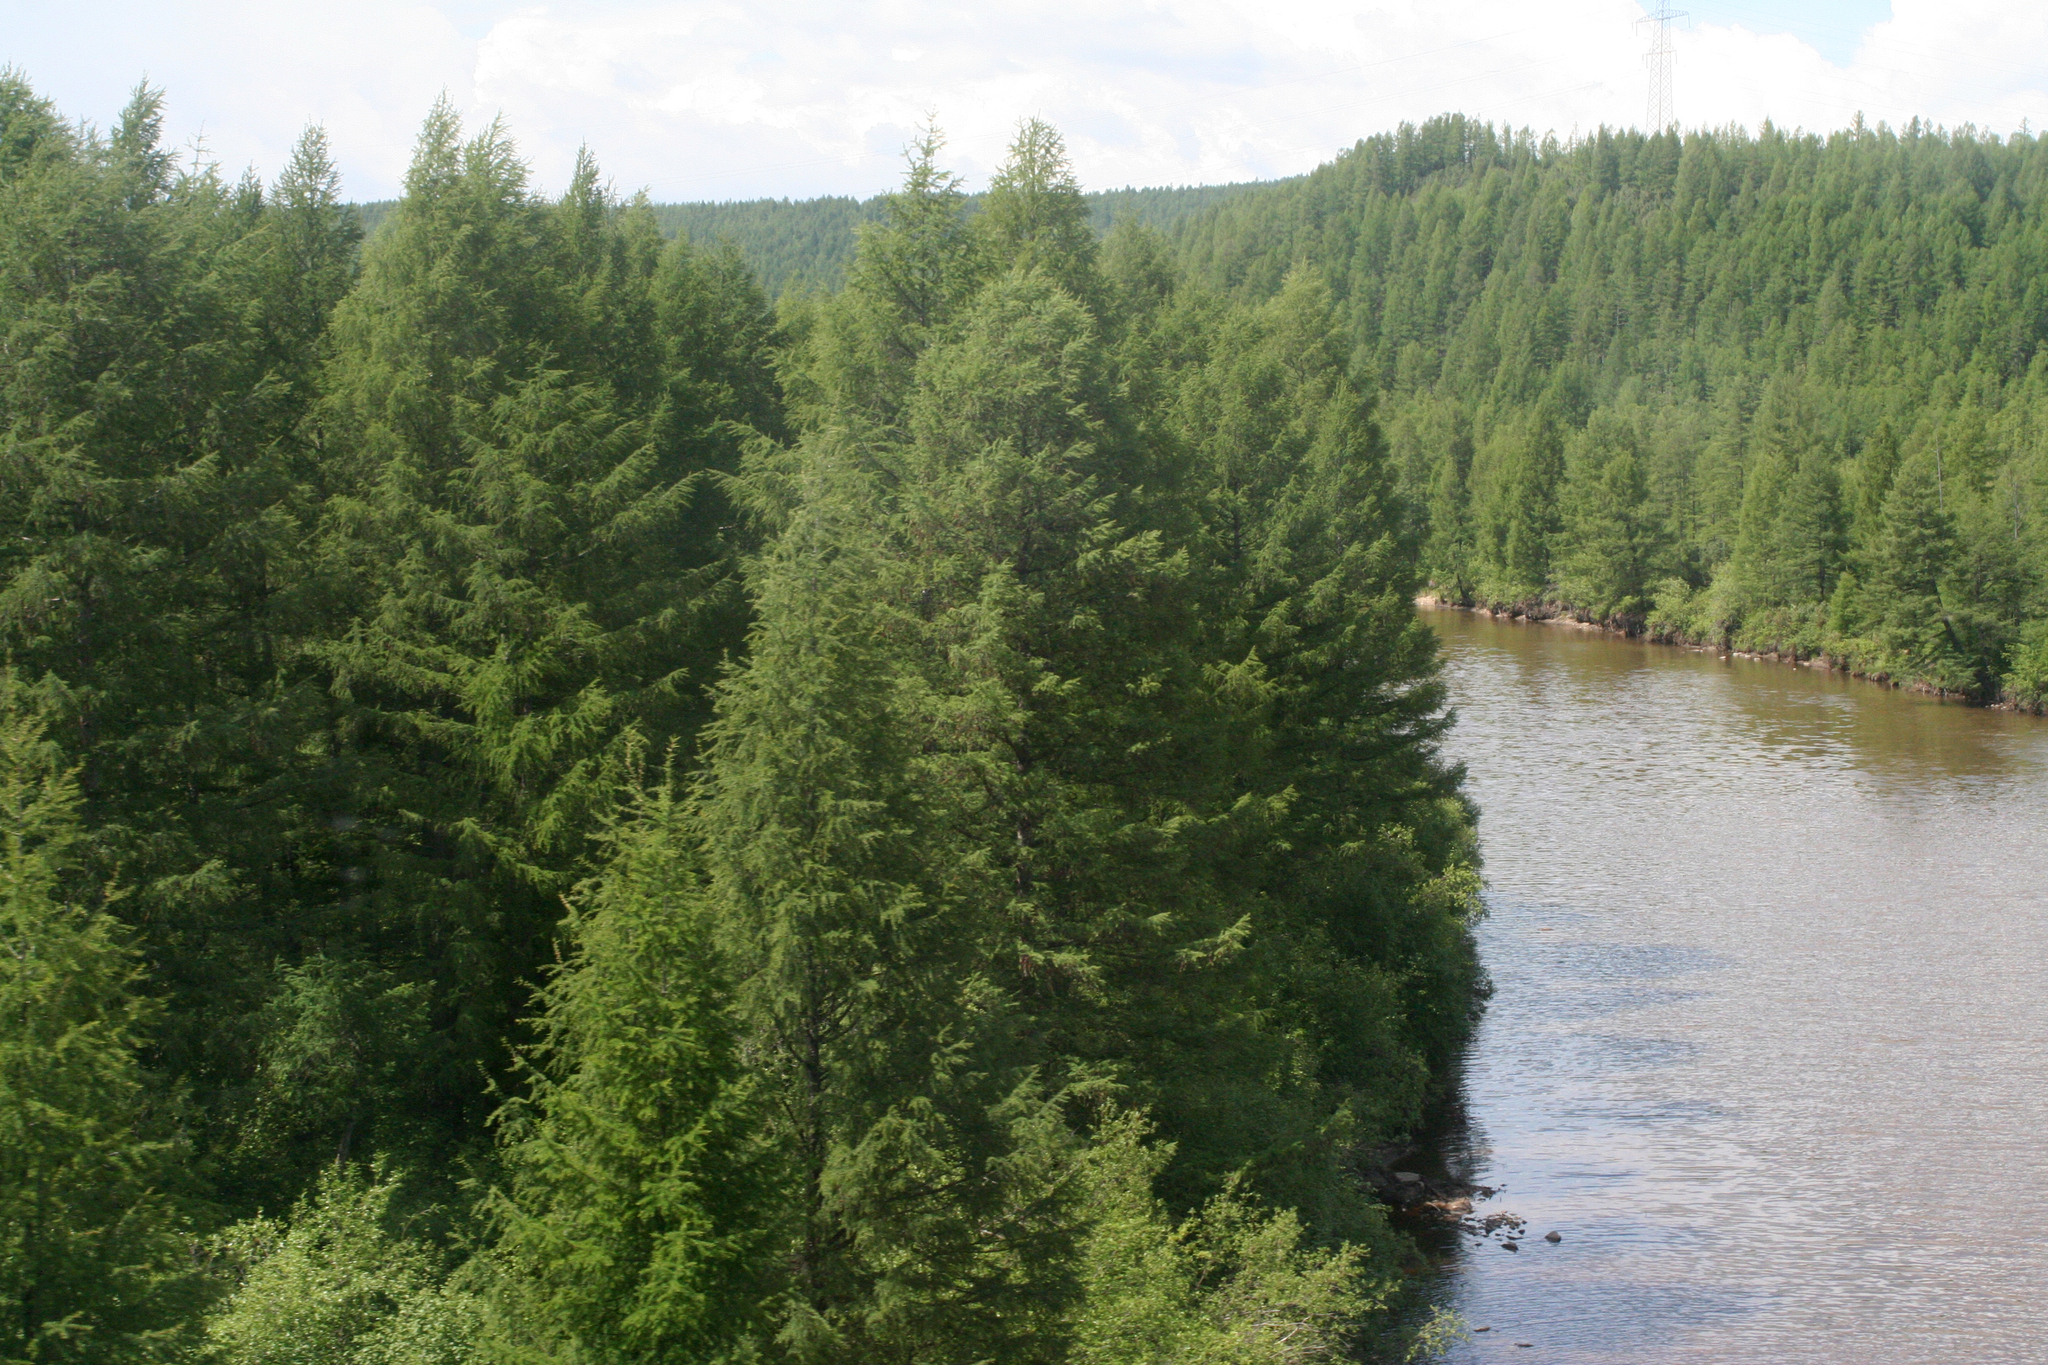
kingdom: Plantae
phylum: Tracheophyta
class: Pinopsida
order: Pinales
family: Pinaceae
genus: Larix
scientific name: Larix gmelinii
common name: Dahurian larch
